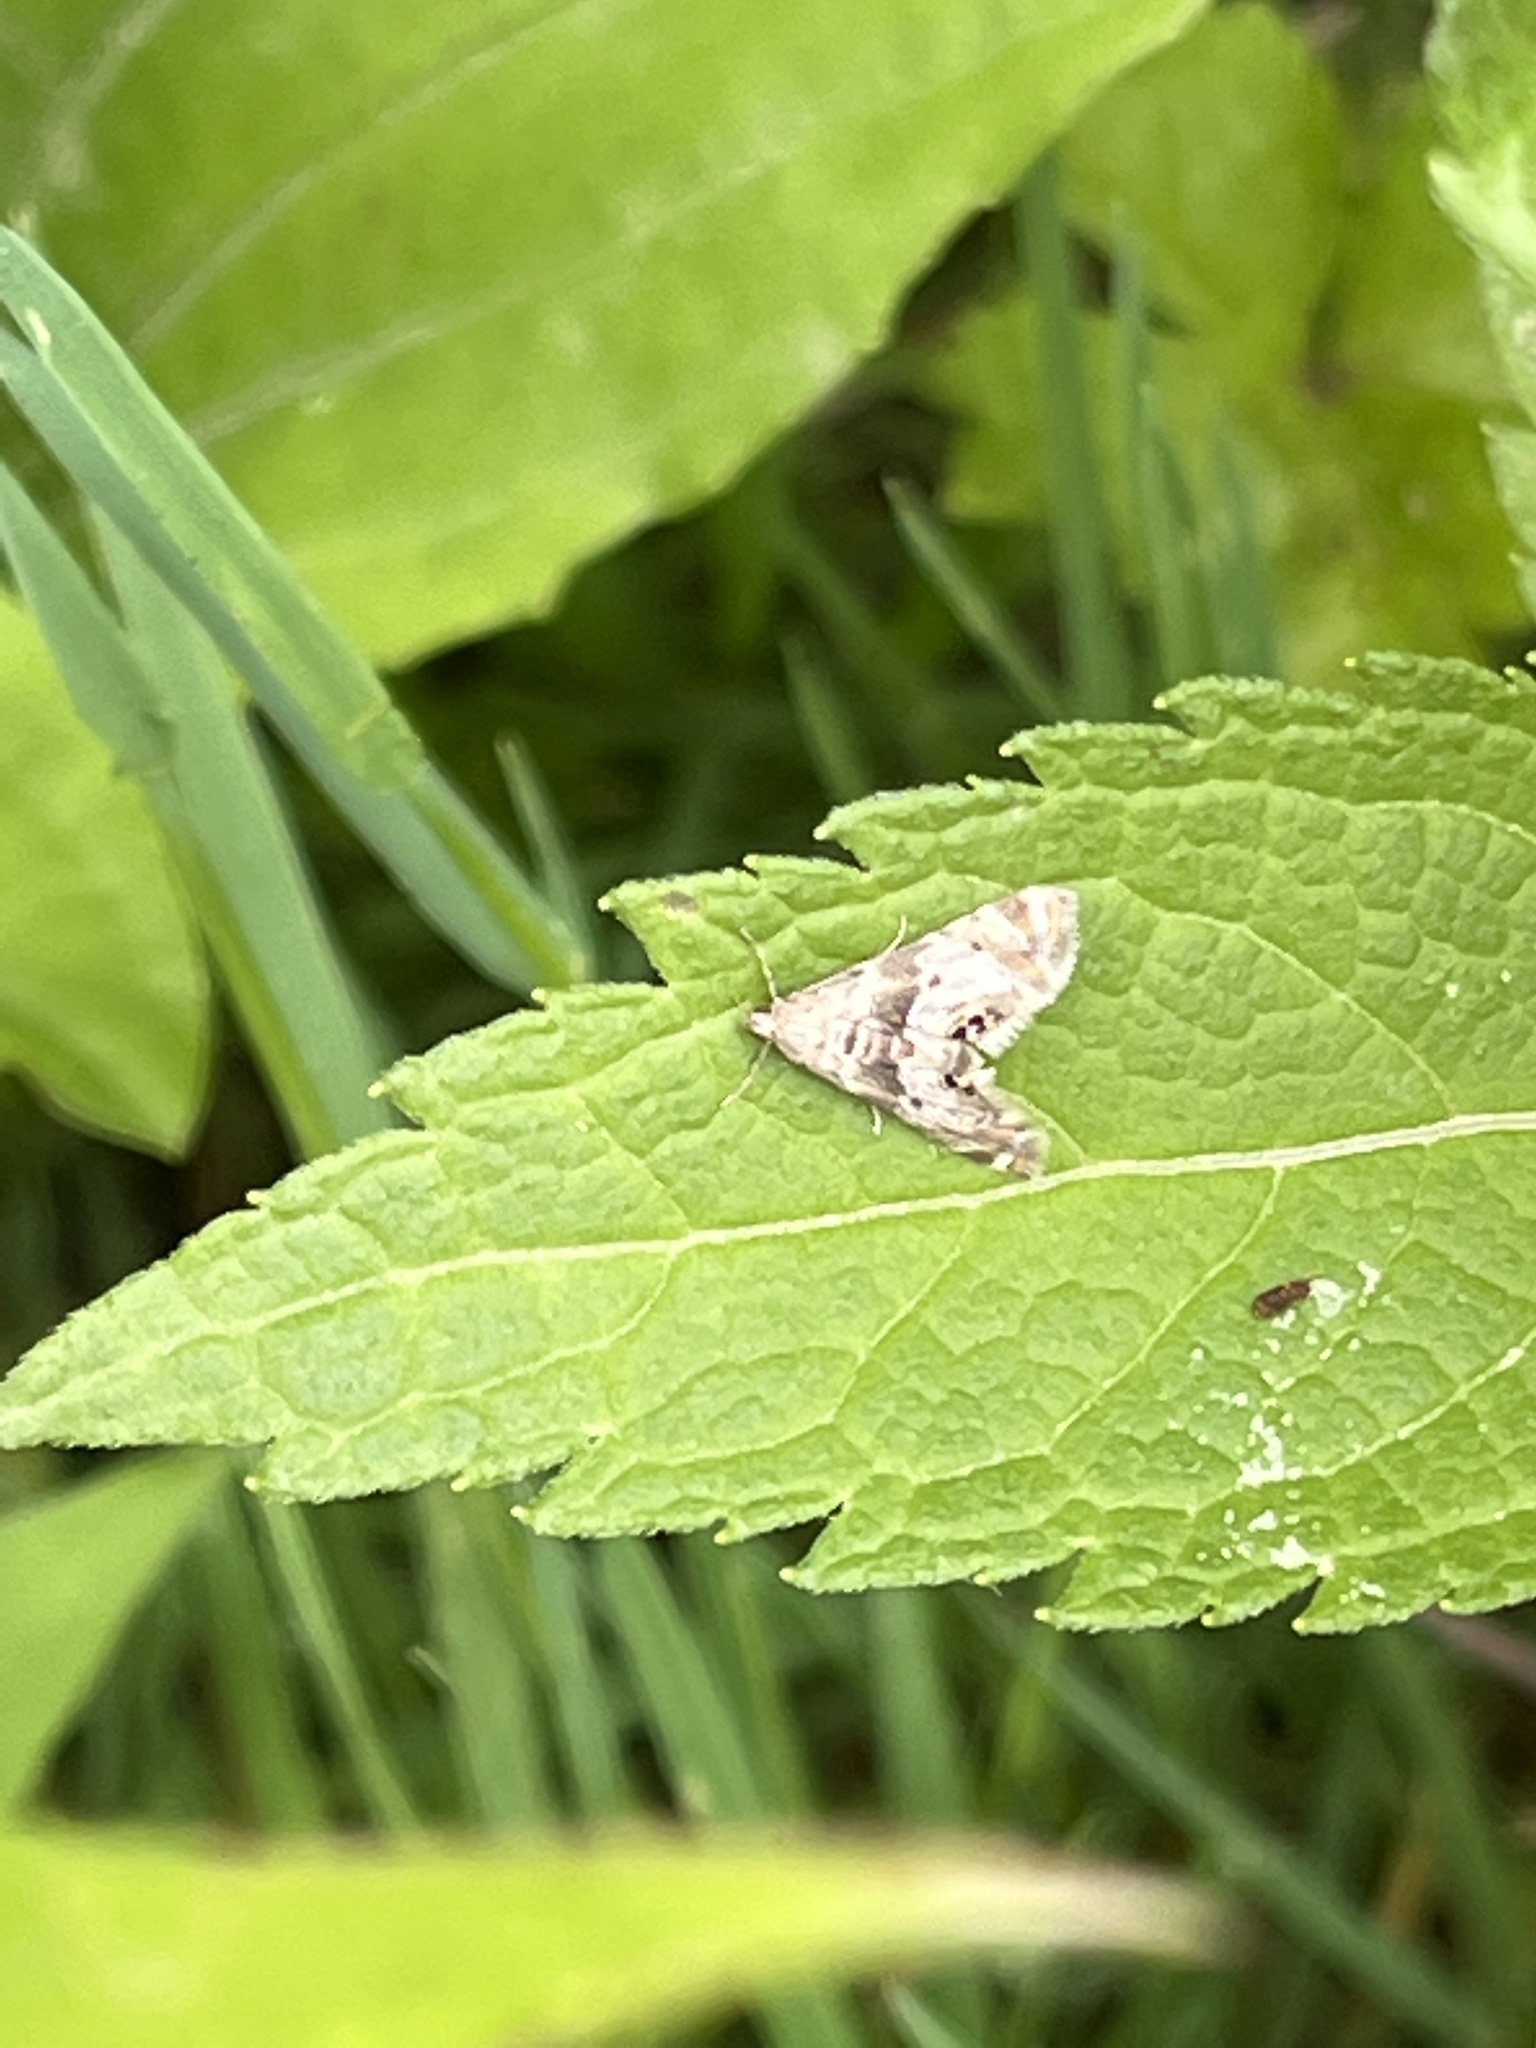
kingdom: Animalia
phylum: Arthropoda
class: Insecta
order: Lepidoptera
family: Crambidae
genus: Petrophila
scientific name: Petrophila fulicalis
